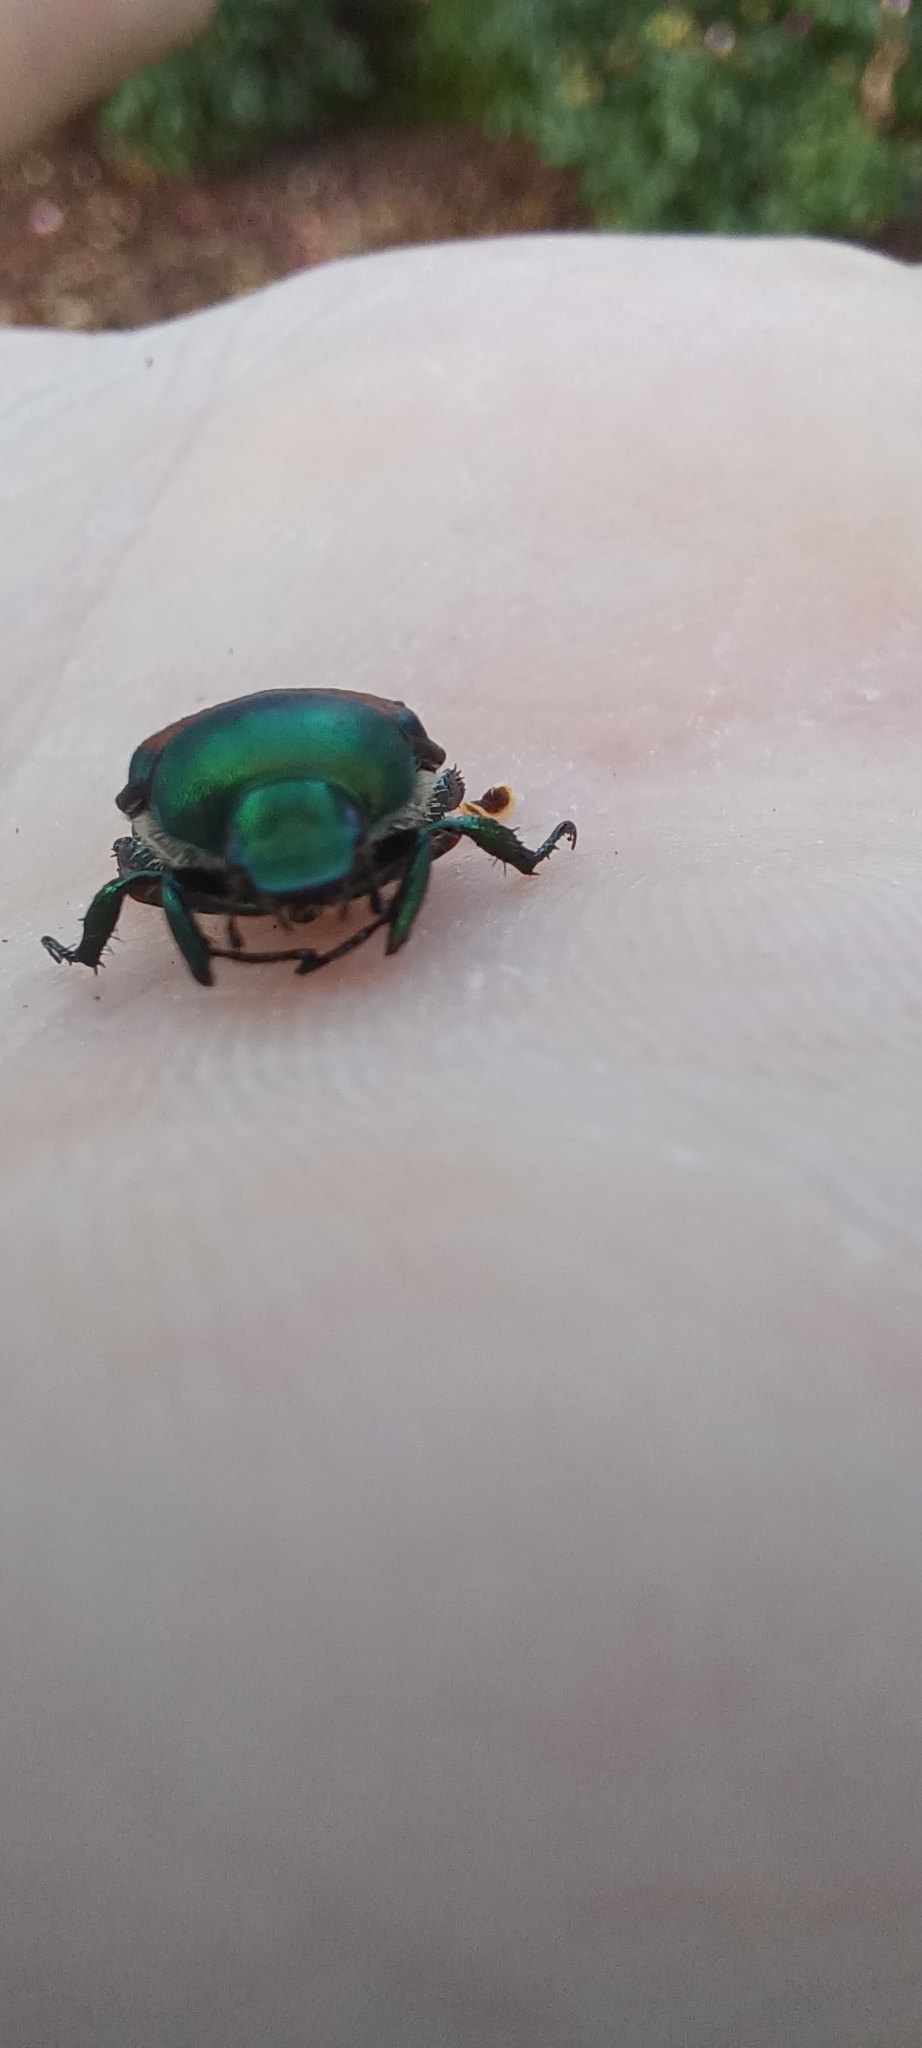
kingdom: Animalia
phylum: Arthropoda
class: Insecta
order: Coleoptera
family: Scarabaeidae
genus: Popillia
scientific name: Popillia japonica
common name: Japanese beetle
